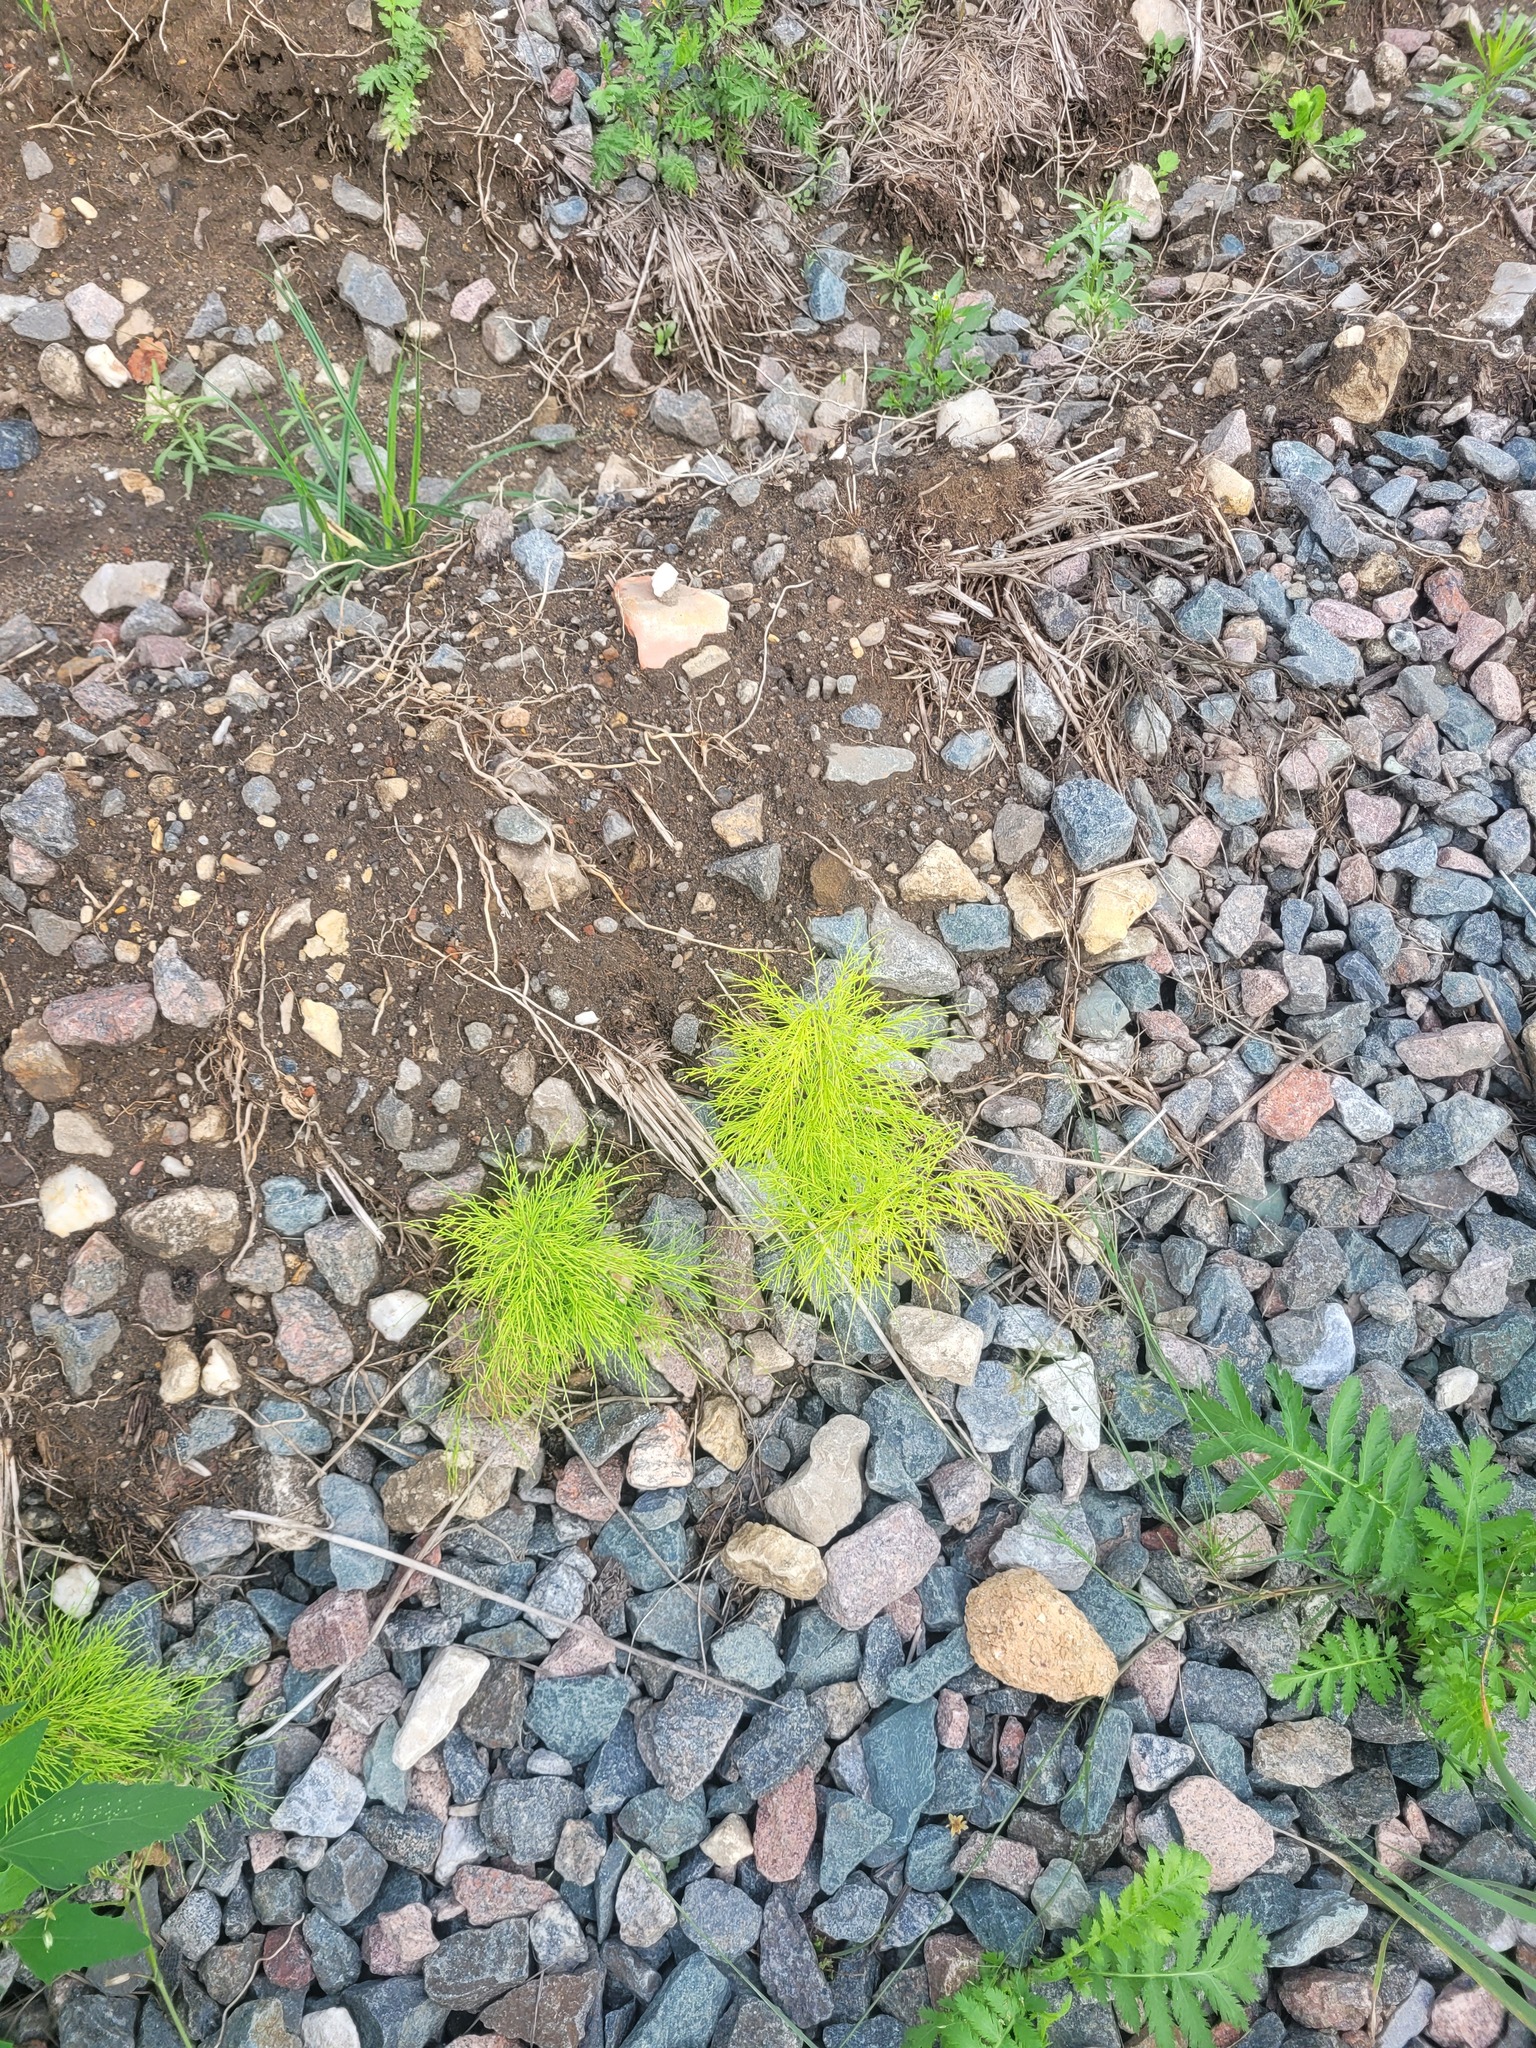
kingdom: Plantae
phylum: Tracheophyta
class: Polypodiopsida
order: Equisetales
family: Equisetaceae
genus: Equisetum
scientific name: Equisetum sylvaticum
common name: Wood horsetail
